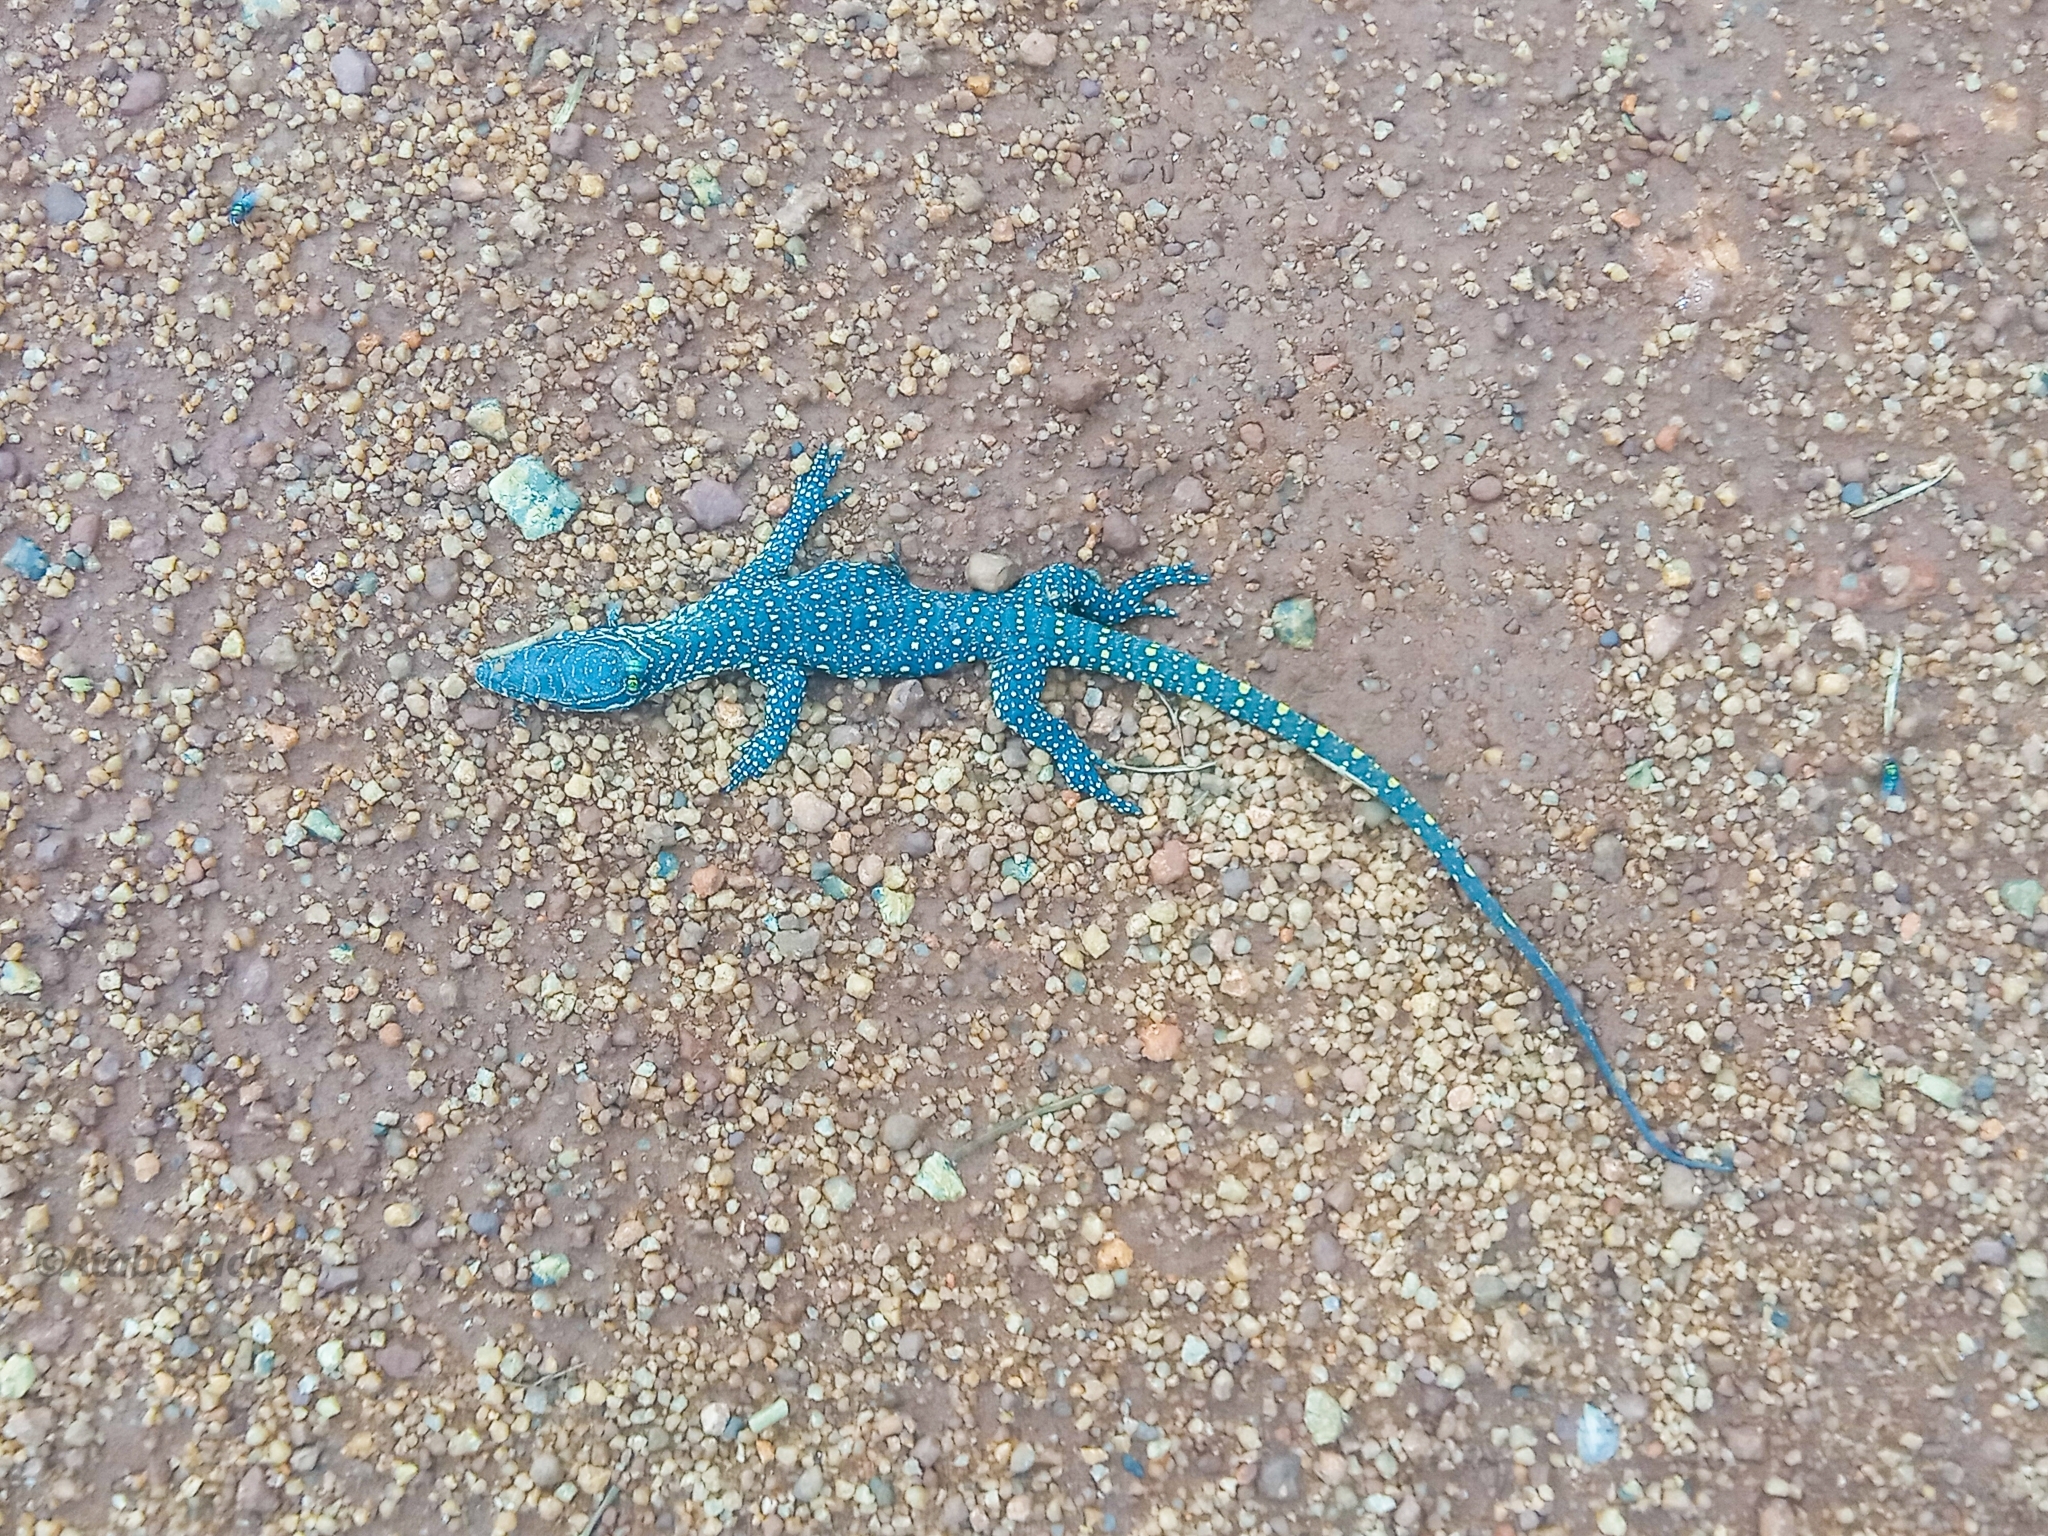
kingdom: Animalia
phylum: Chordata
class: Squamata
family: Varanidae
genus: Varanus
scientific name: Varanus niloticus
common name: Nile monitor
